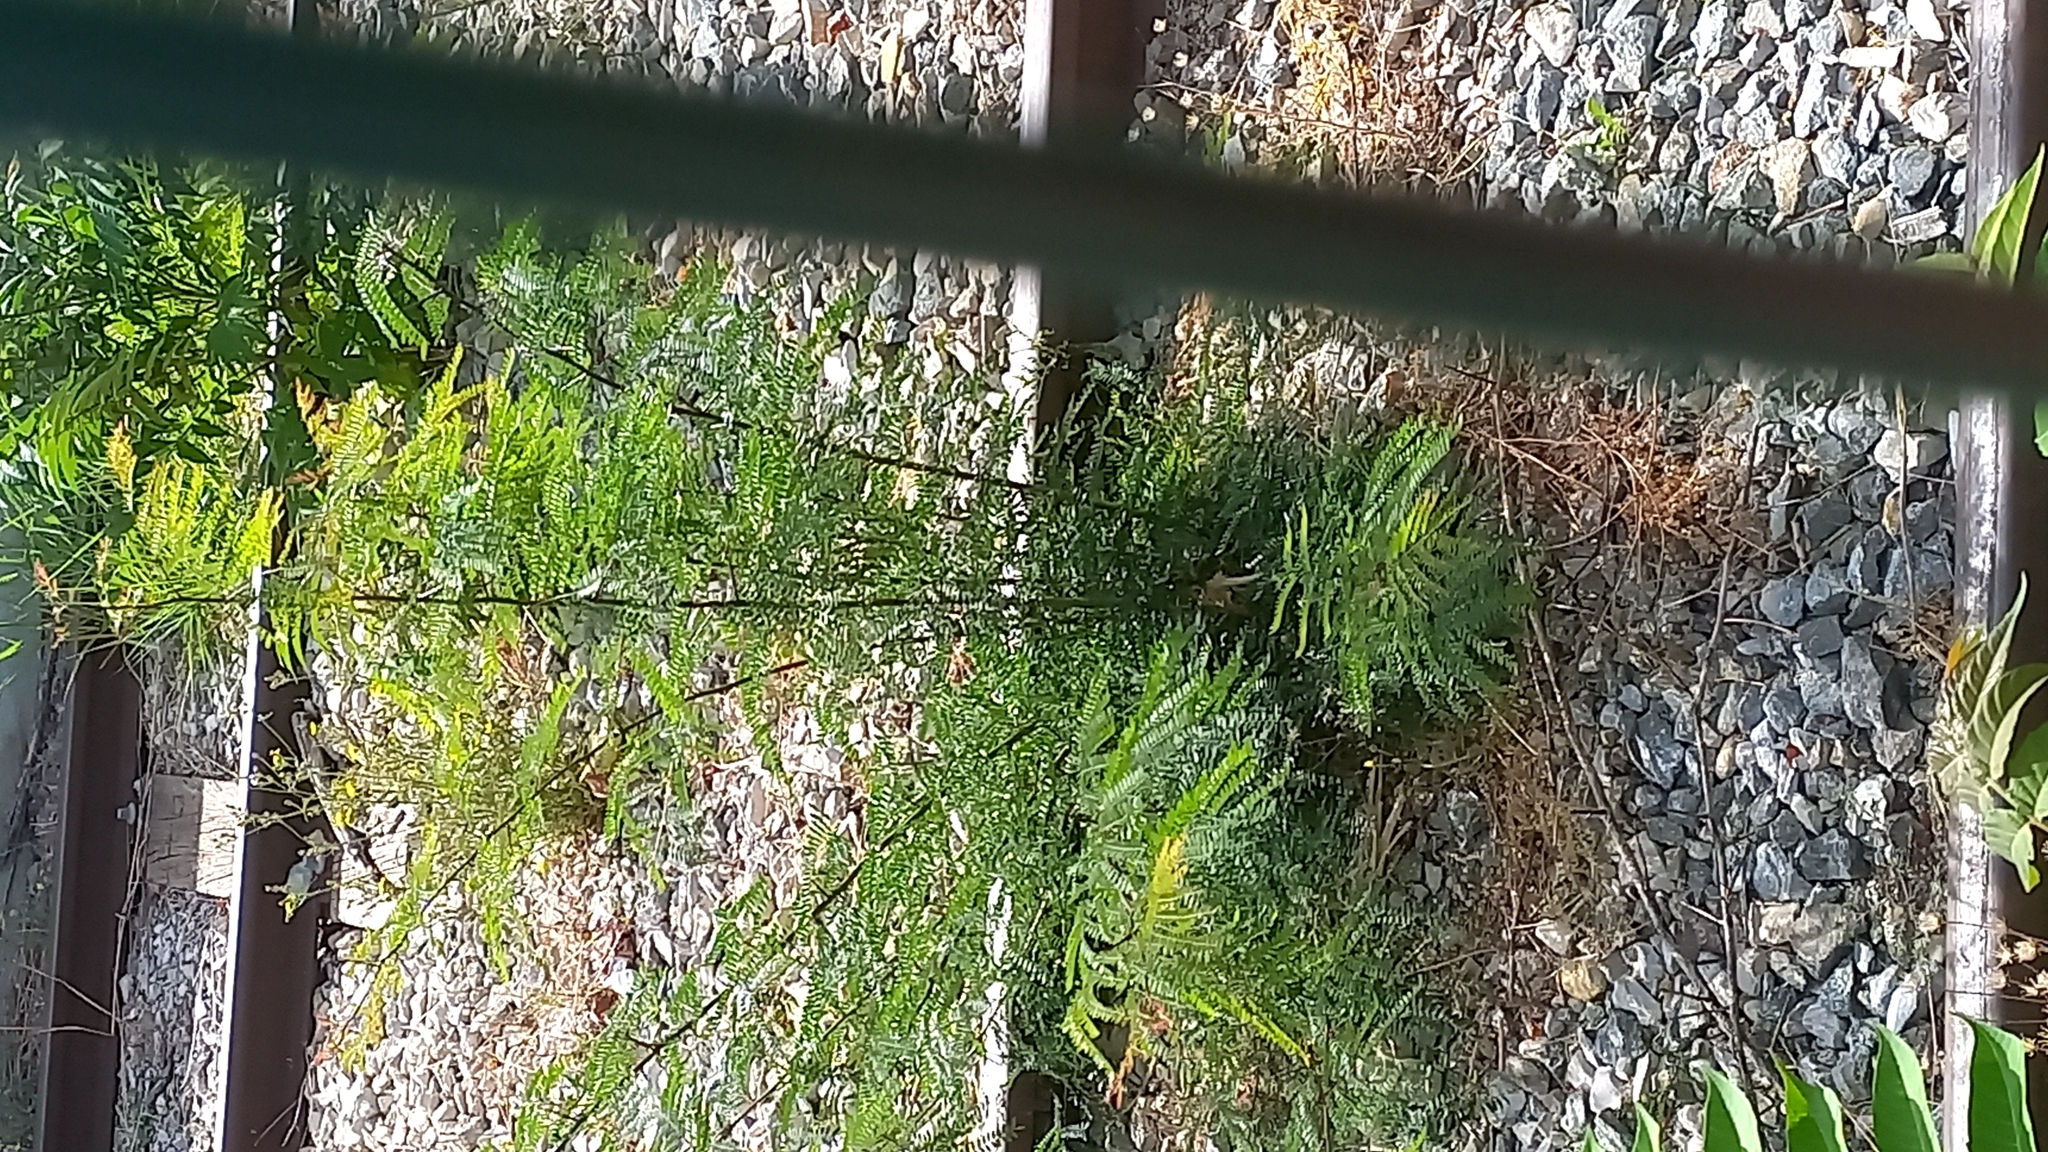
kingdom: Plantae
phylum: Tracheophyta
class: Magnoliopsida
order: Fabales
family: Fabaceae
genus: Robinia
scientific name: Robinia pseudoacacia
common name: Black locust
